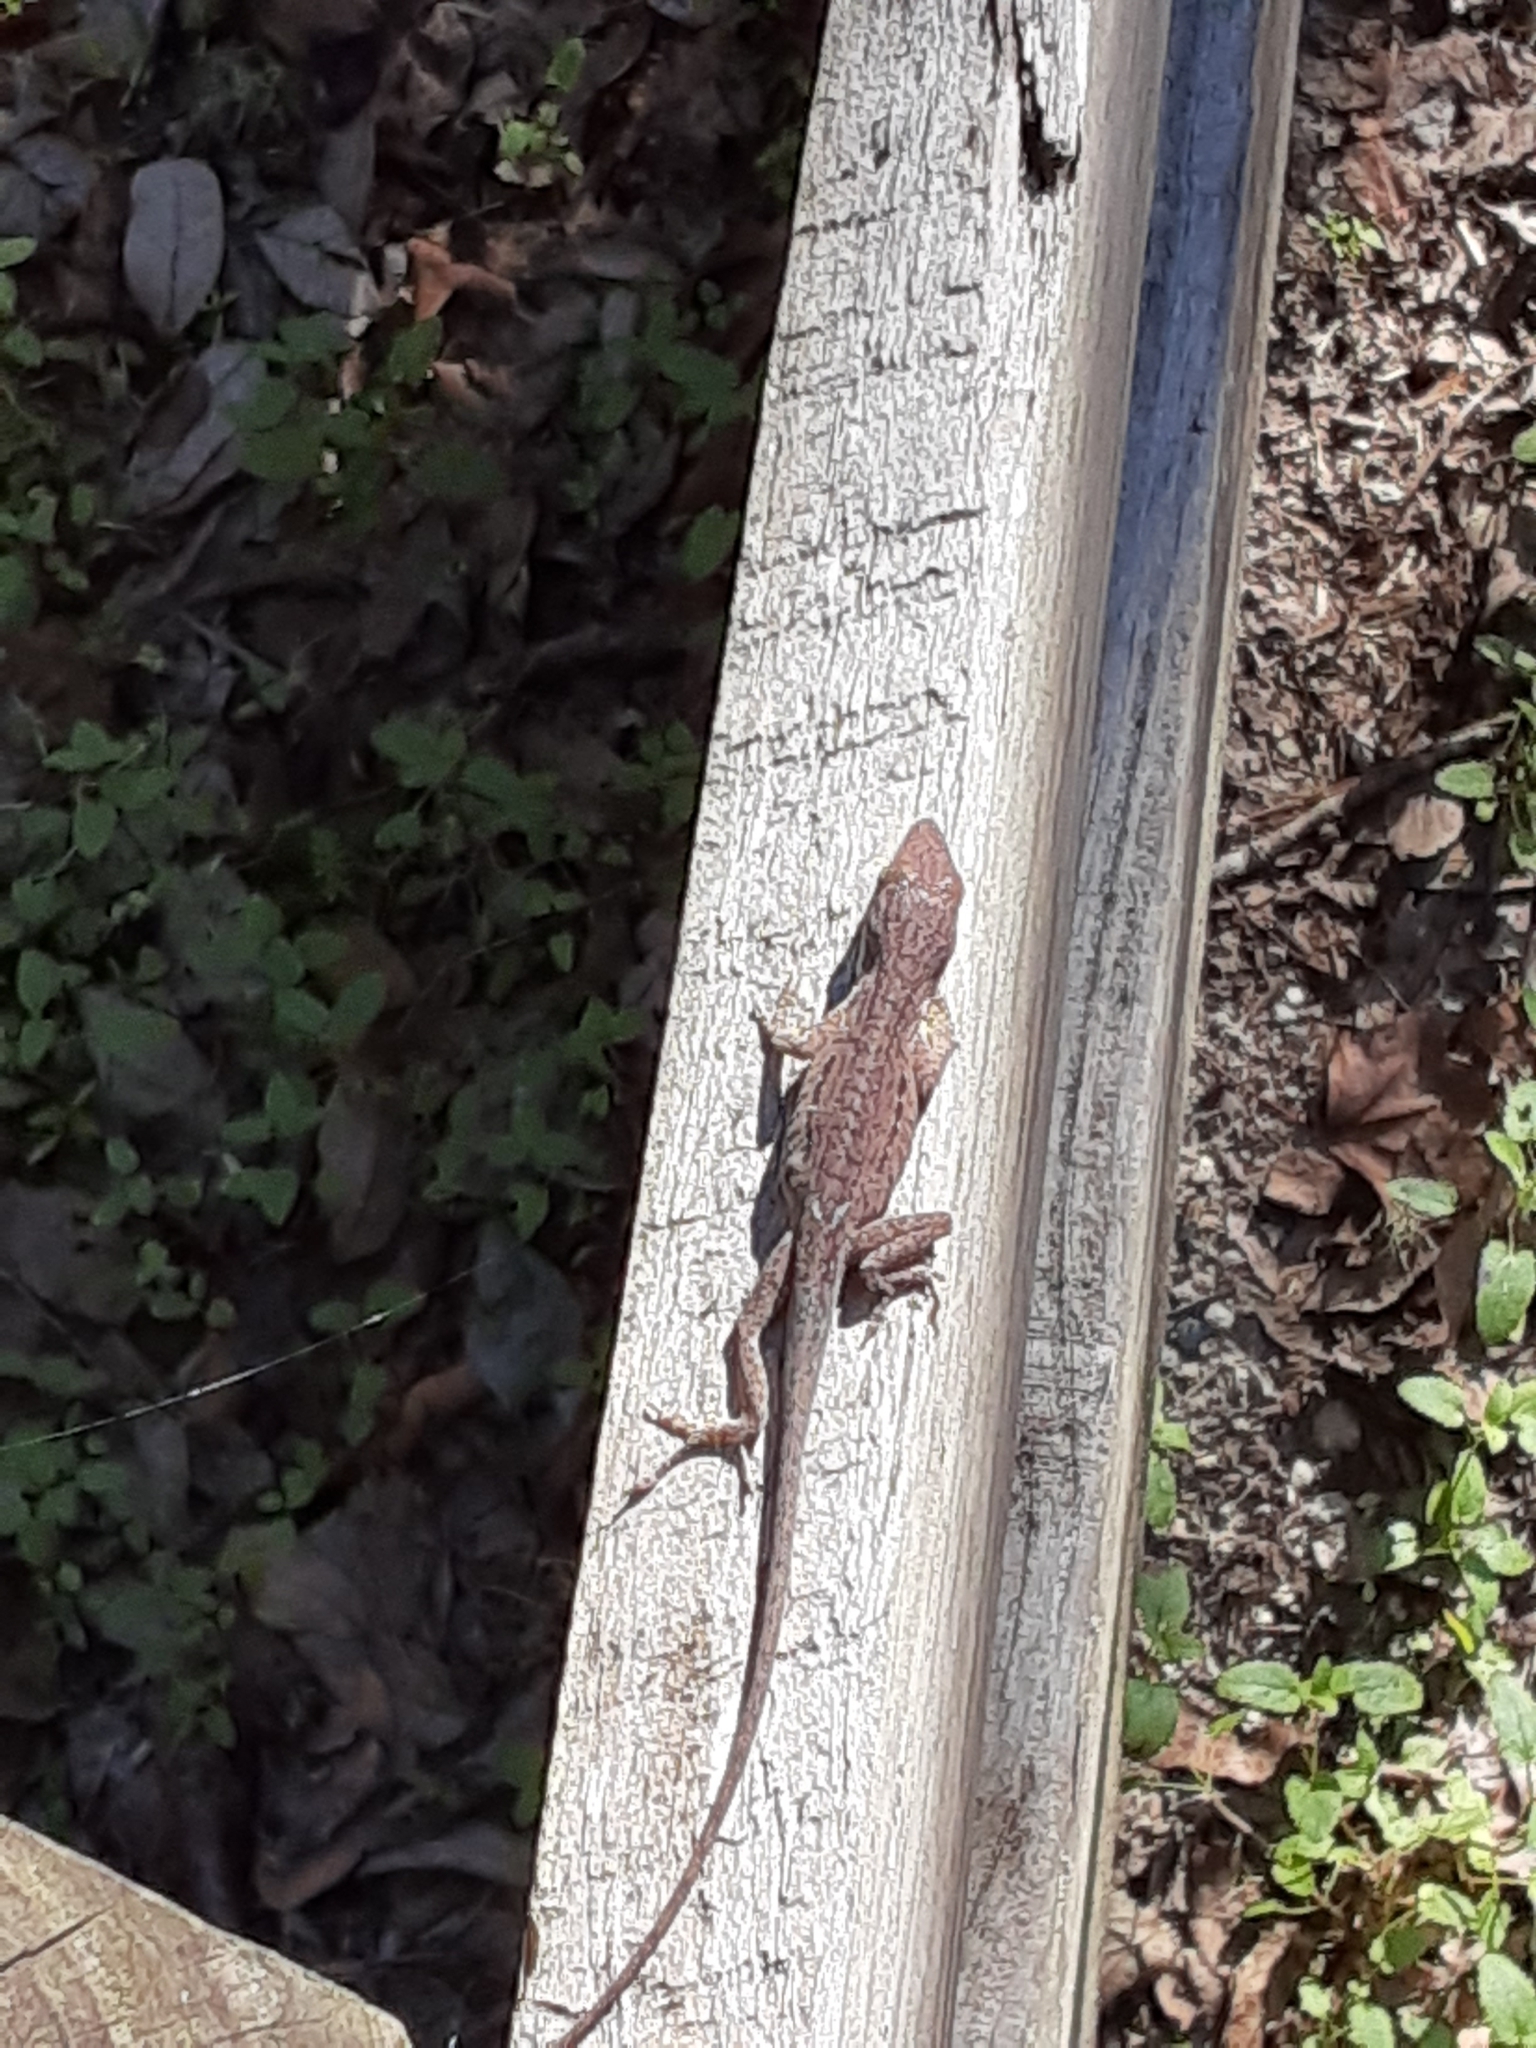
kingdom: Animalia
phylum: Chordata
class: Squamata
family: Dactyloidae
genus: Anolis
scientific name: Anolis carolinensis
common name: Green anole
